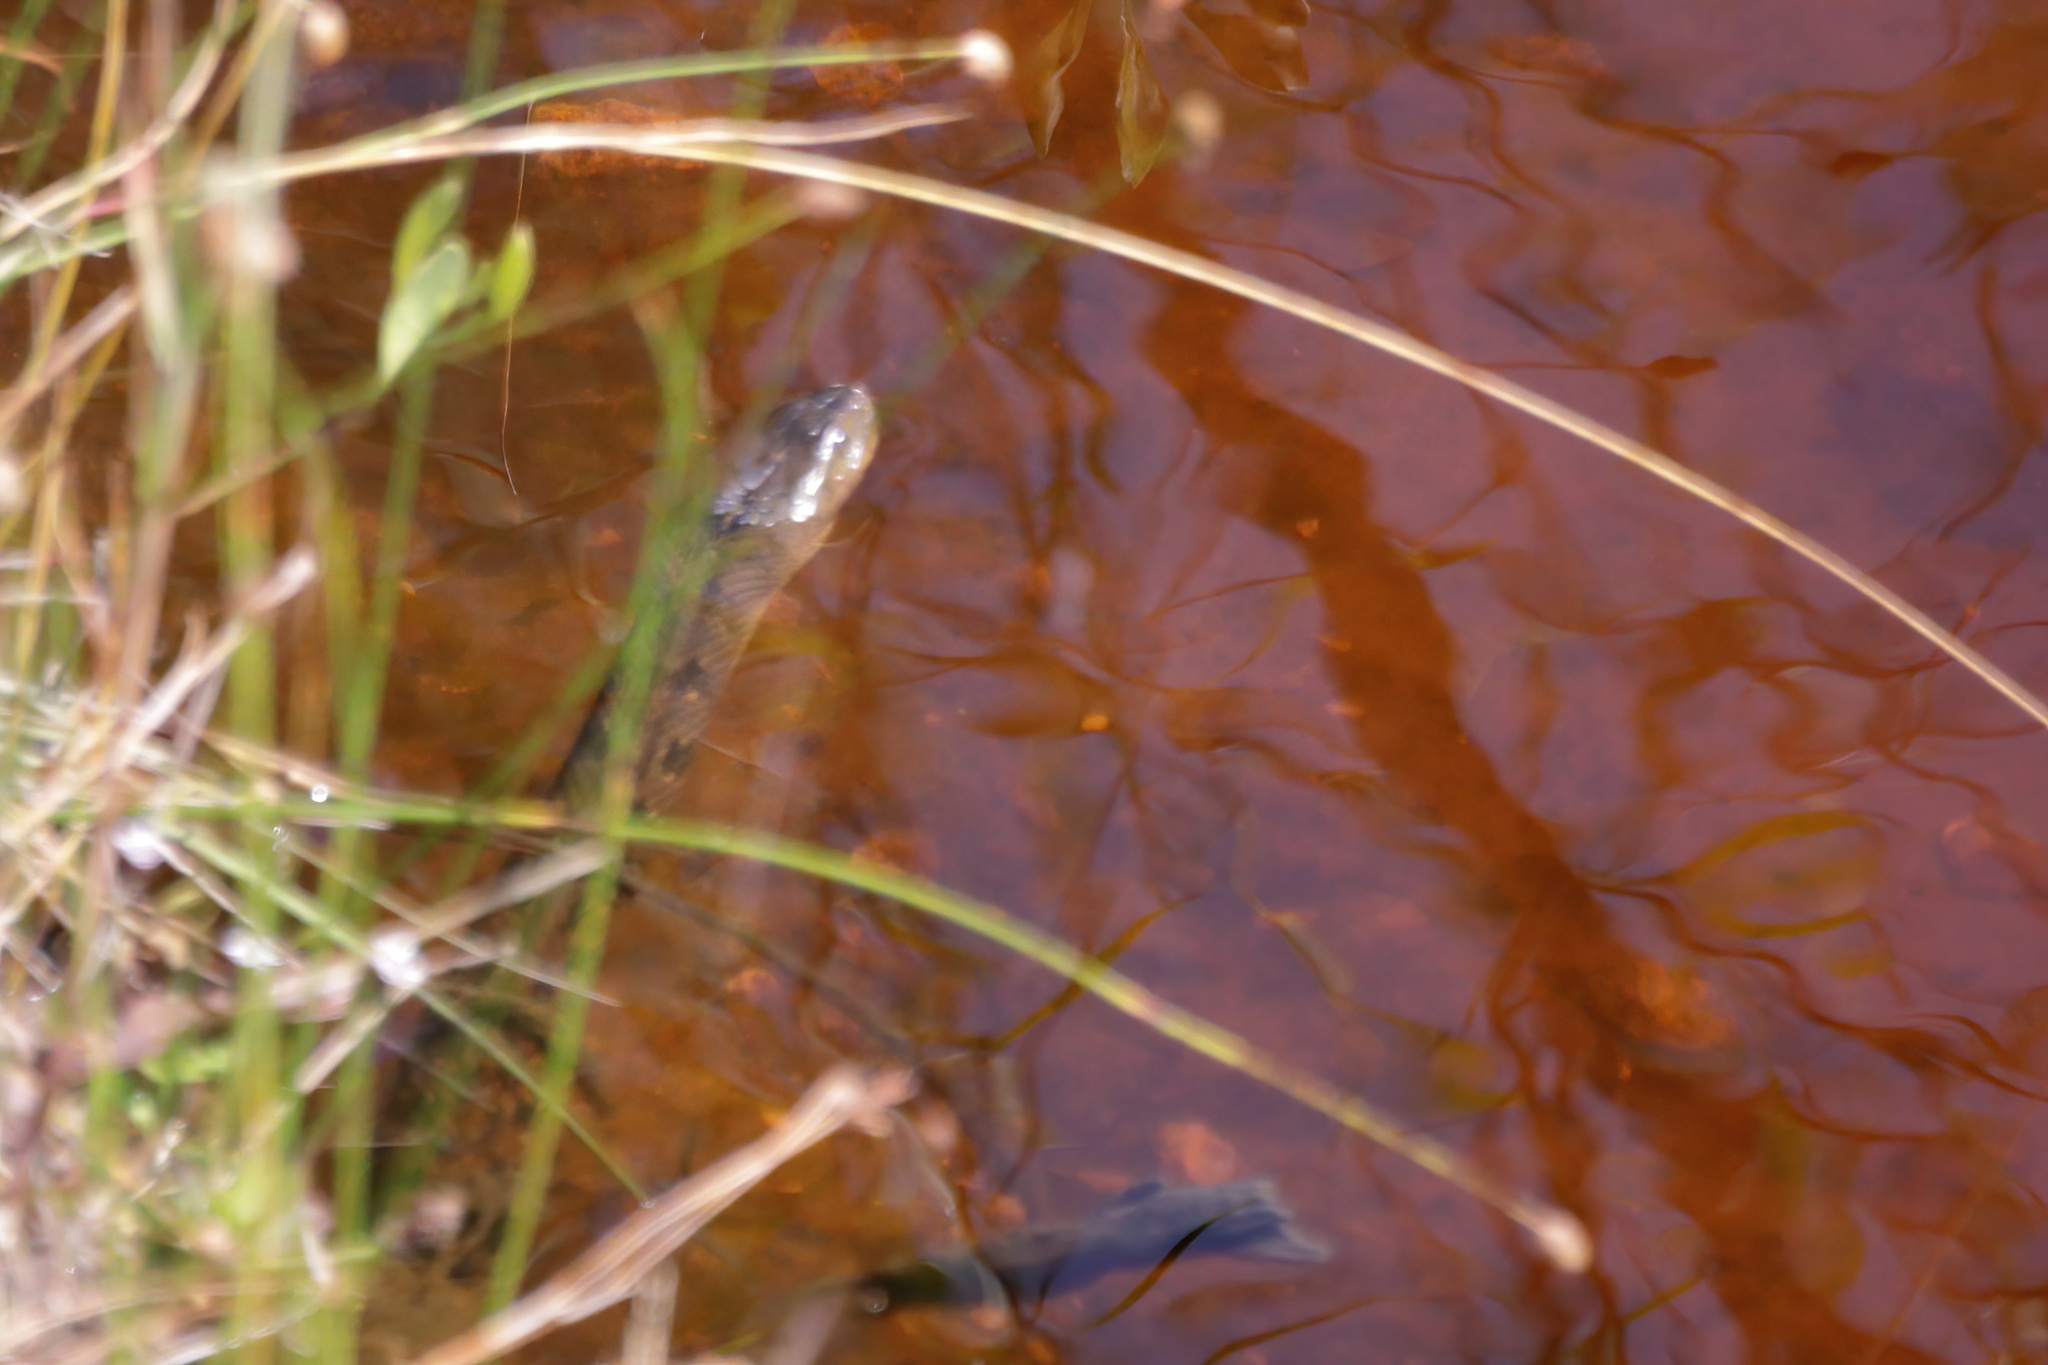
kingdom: Animalia
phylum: Chordata
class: Squamata
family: Colubridae
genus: Nerodia
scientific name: Nerodia cyclopion
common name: Mississippi green water snake
